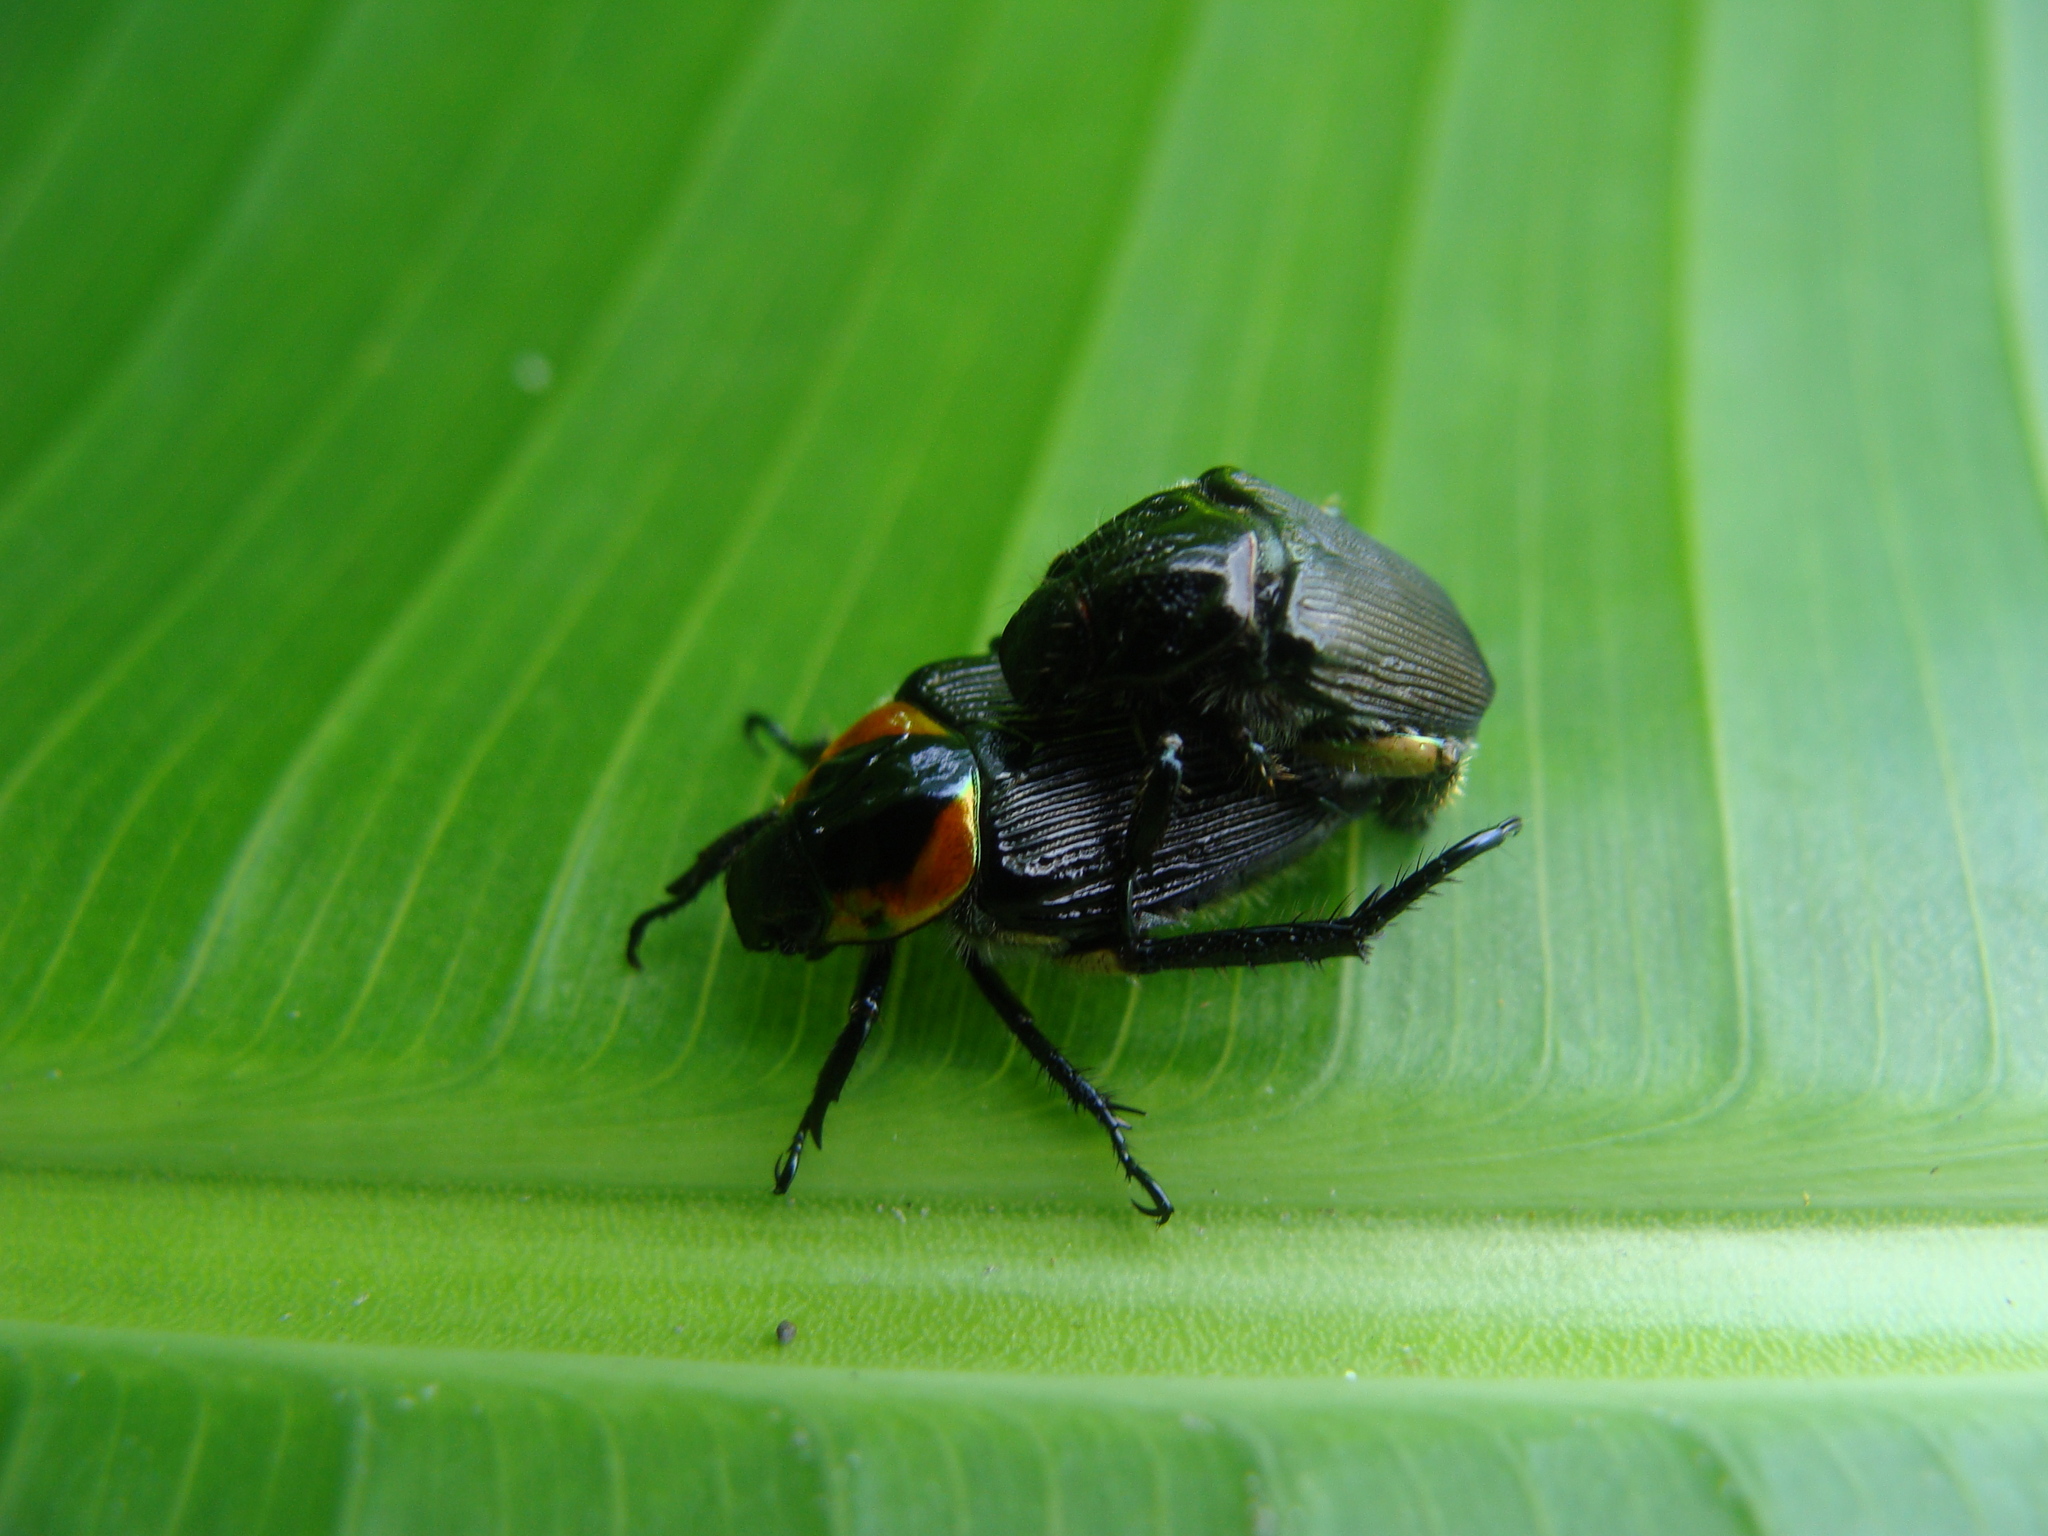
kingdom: Animalia
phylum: Arthropoda
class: Insecta
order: Coleoptera
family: Scarabaeidae
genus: Strigoderma
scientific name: Strigoderma sulcipennis
